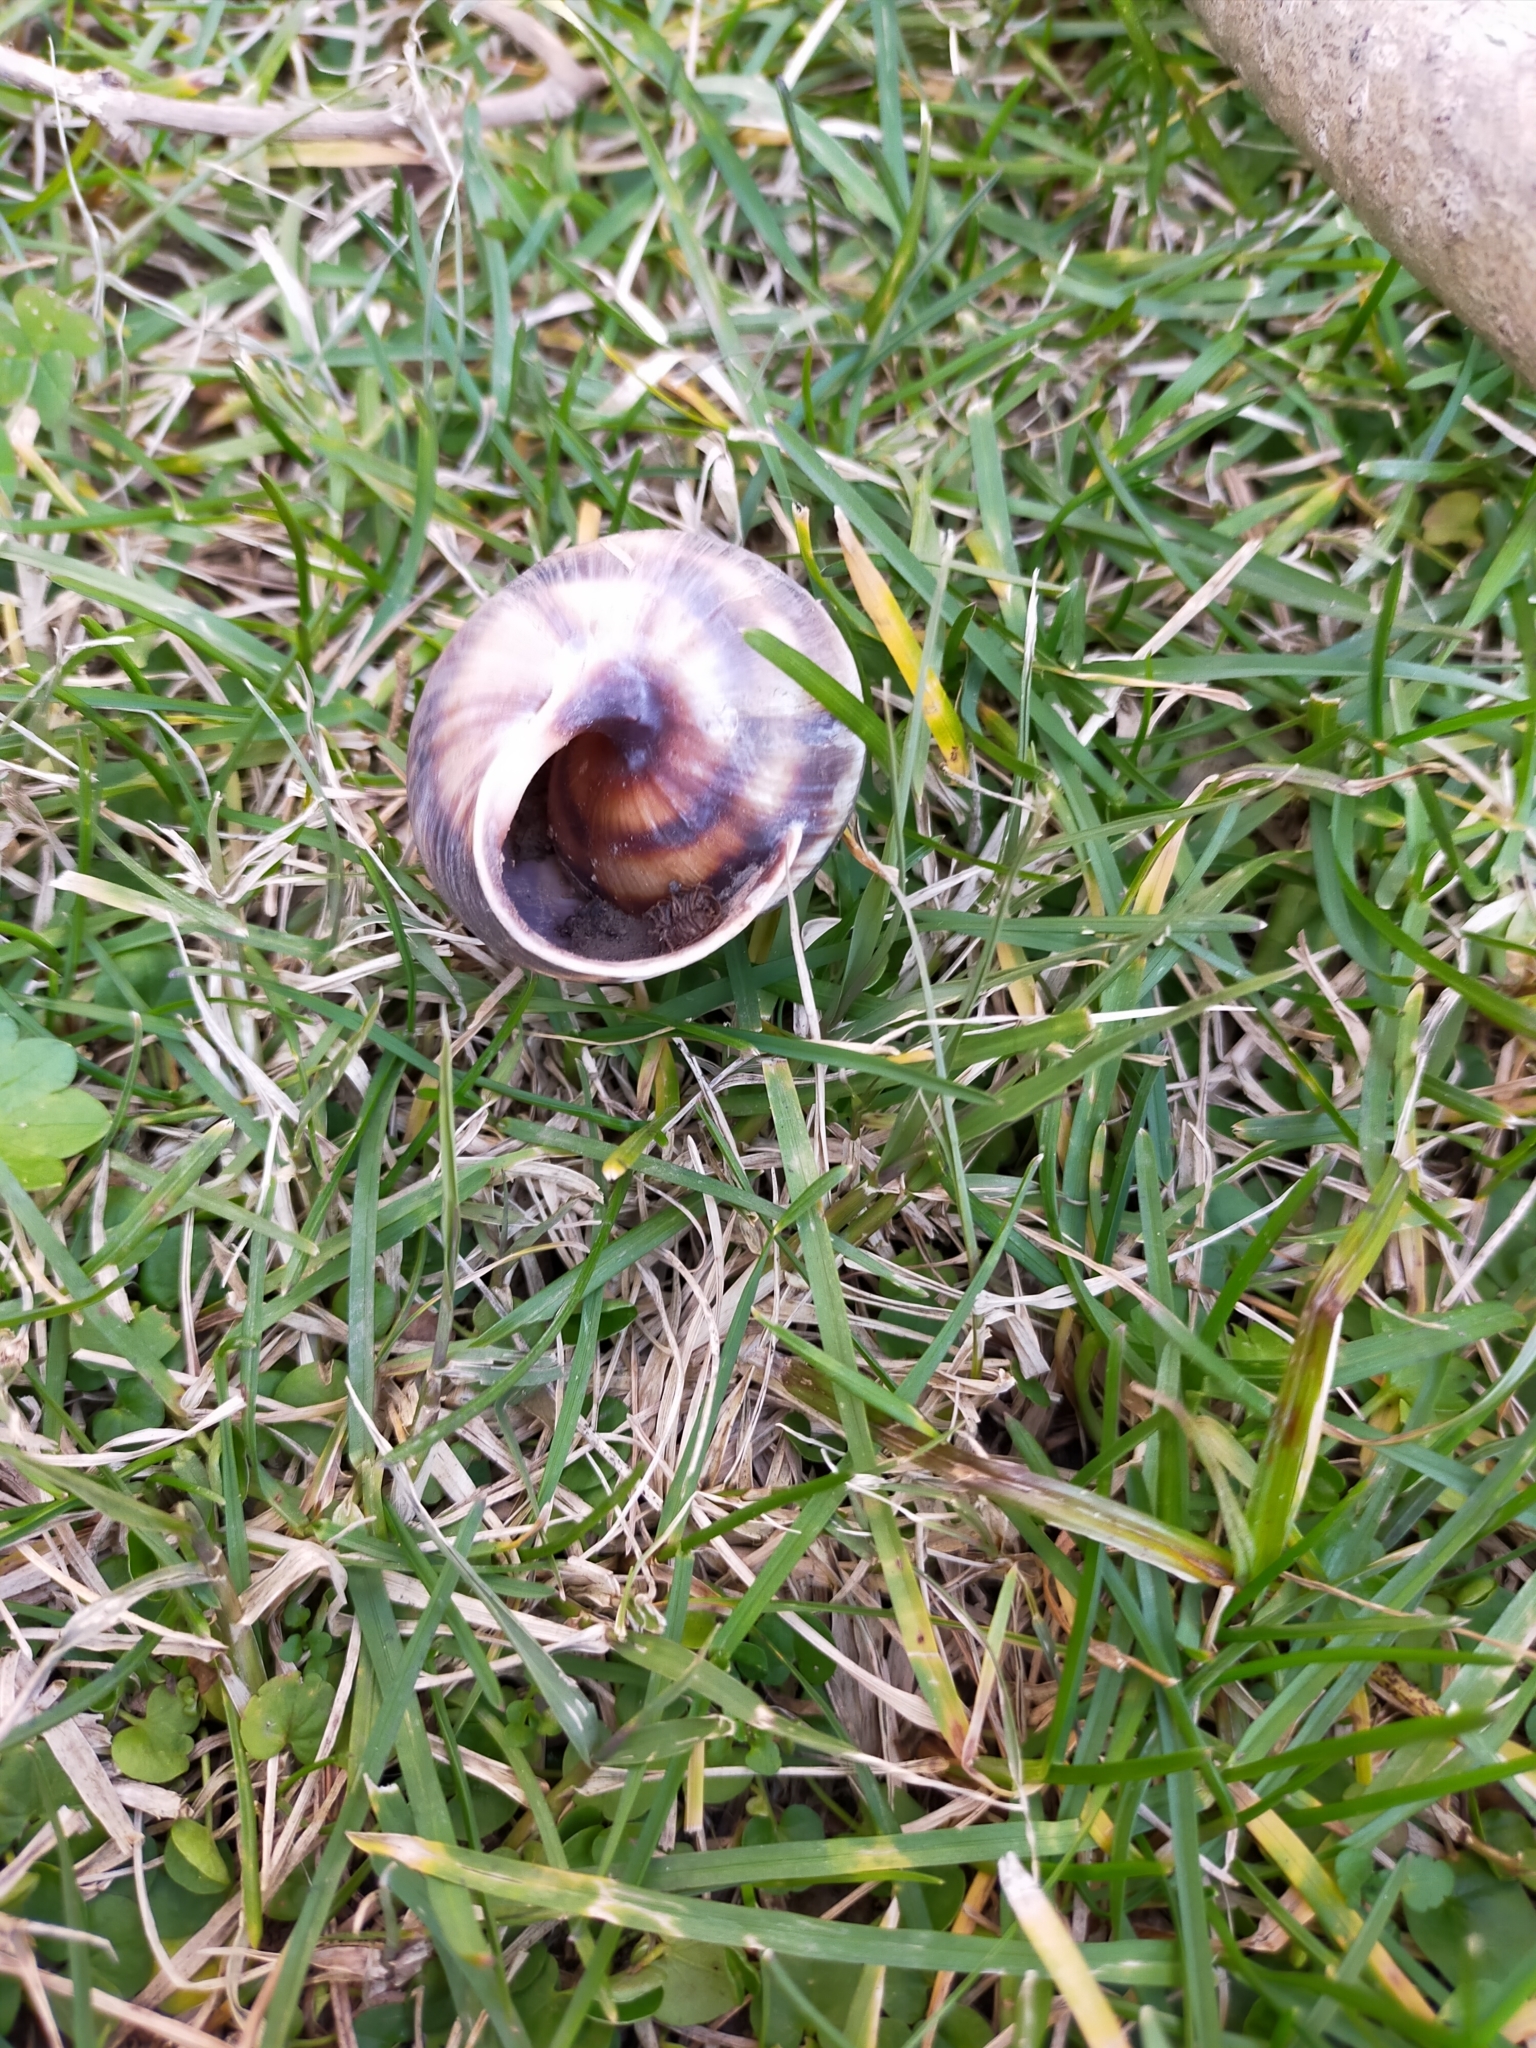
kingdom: Animalia
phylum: Mollusca
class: Gastropoda
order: Stylommatophora
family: Helicidae
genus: Helix
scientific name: Helix lucorum
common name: Turkish snail
